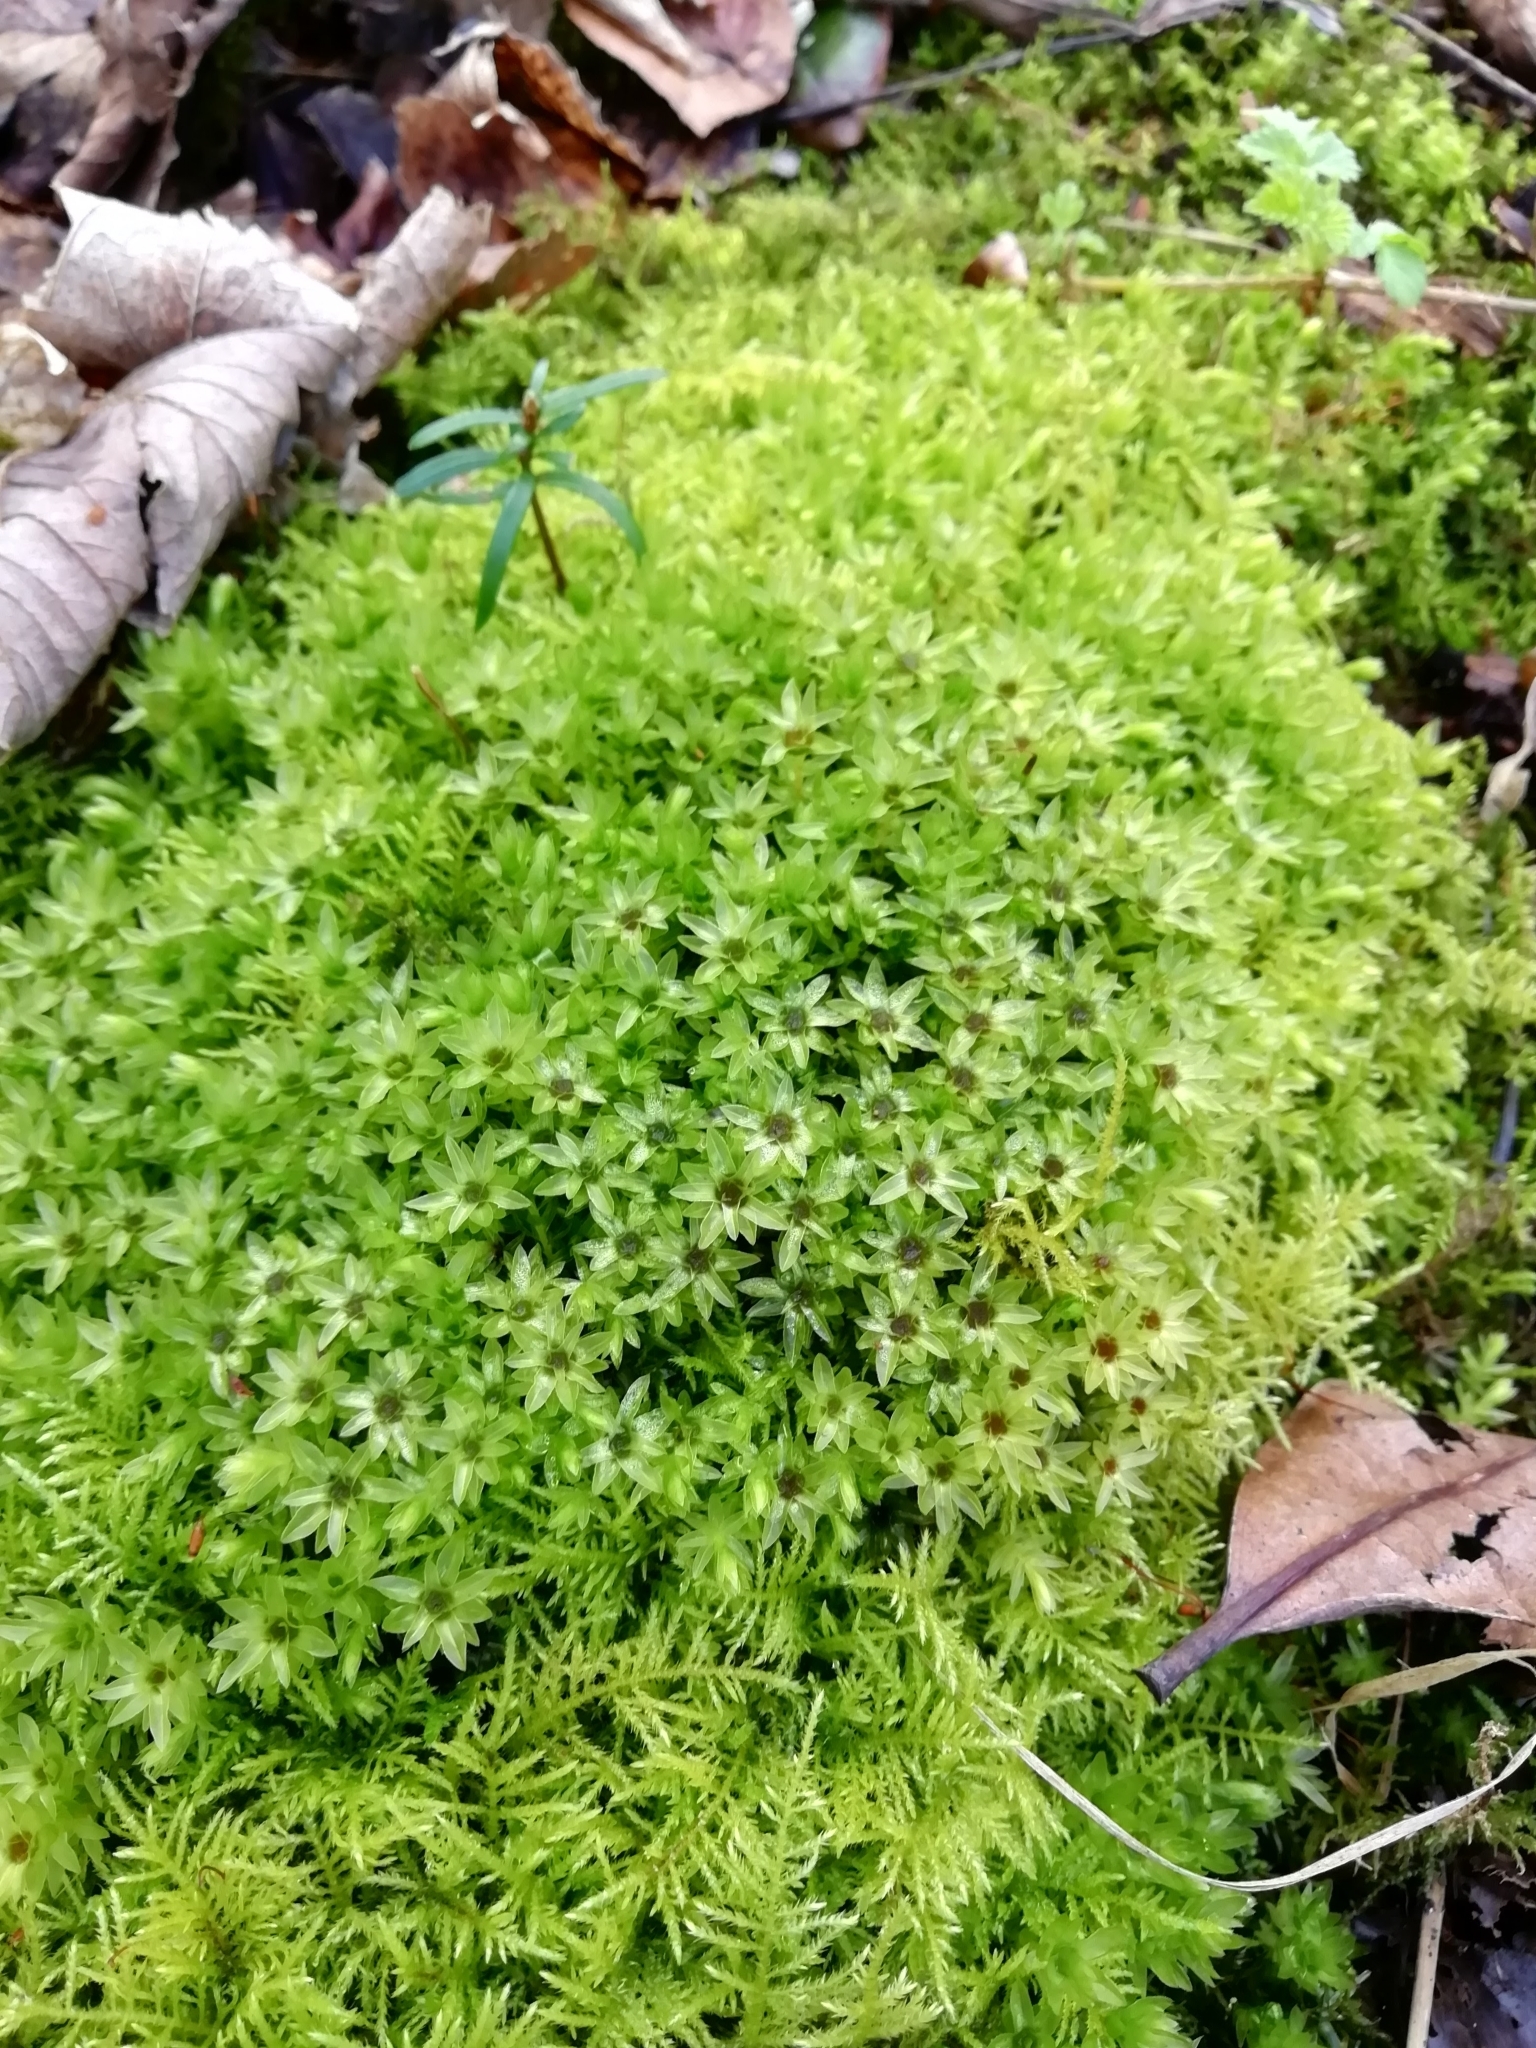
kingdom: Plantae
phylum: Bryophyta
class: Bryopsida
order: Bryales
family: Mniaceae
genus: Mnium
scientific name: Mnium hornum
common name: Swan's-neck leafy moss
